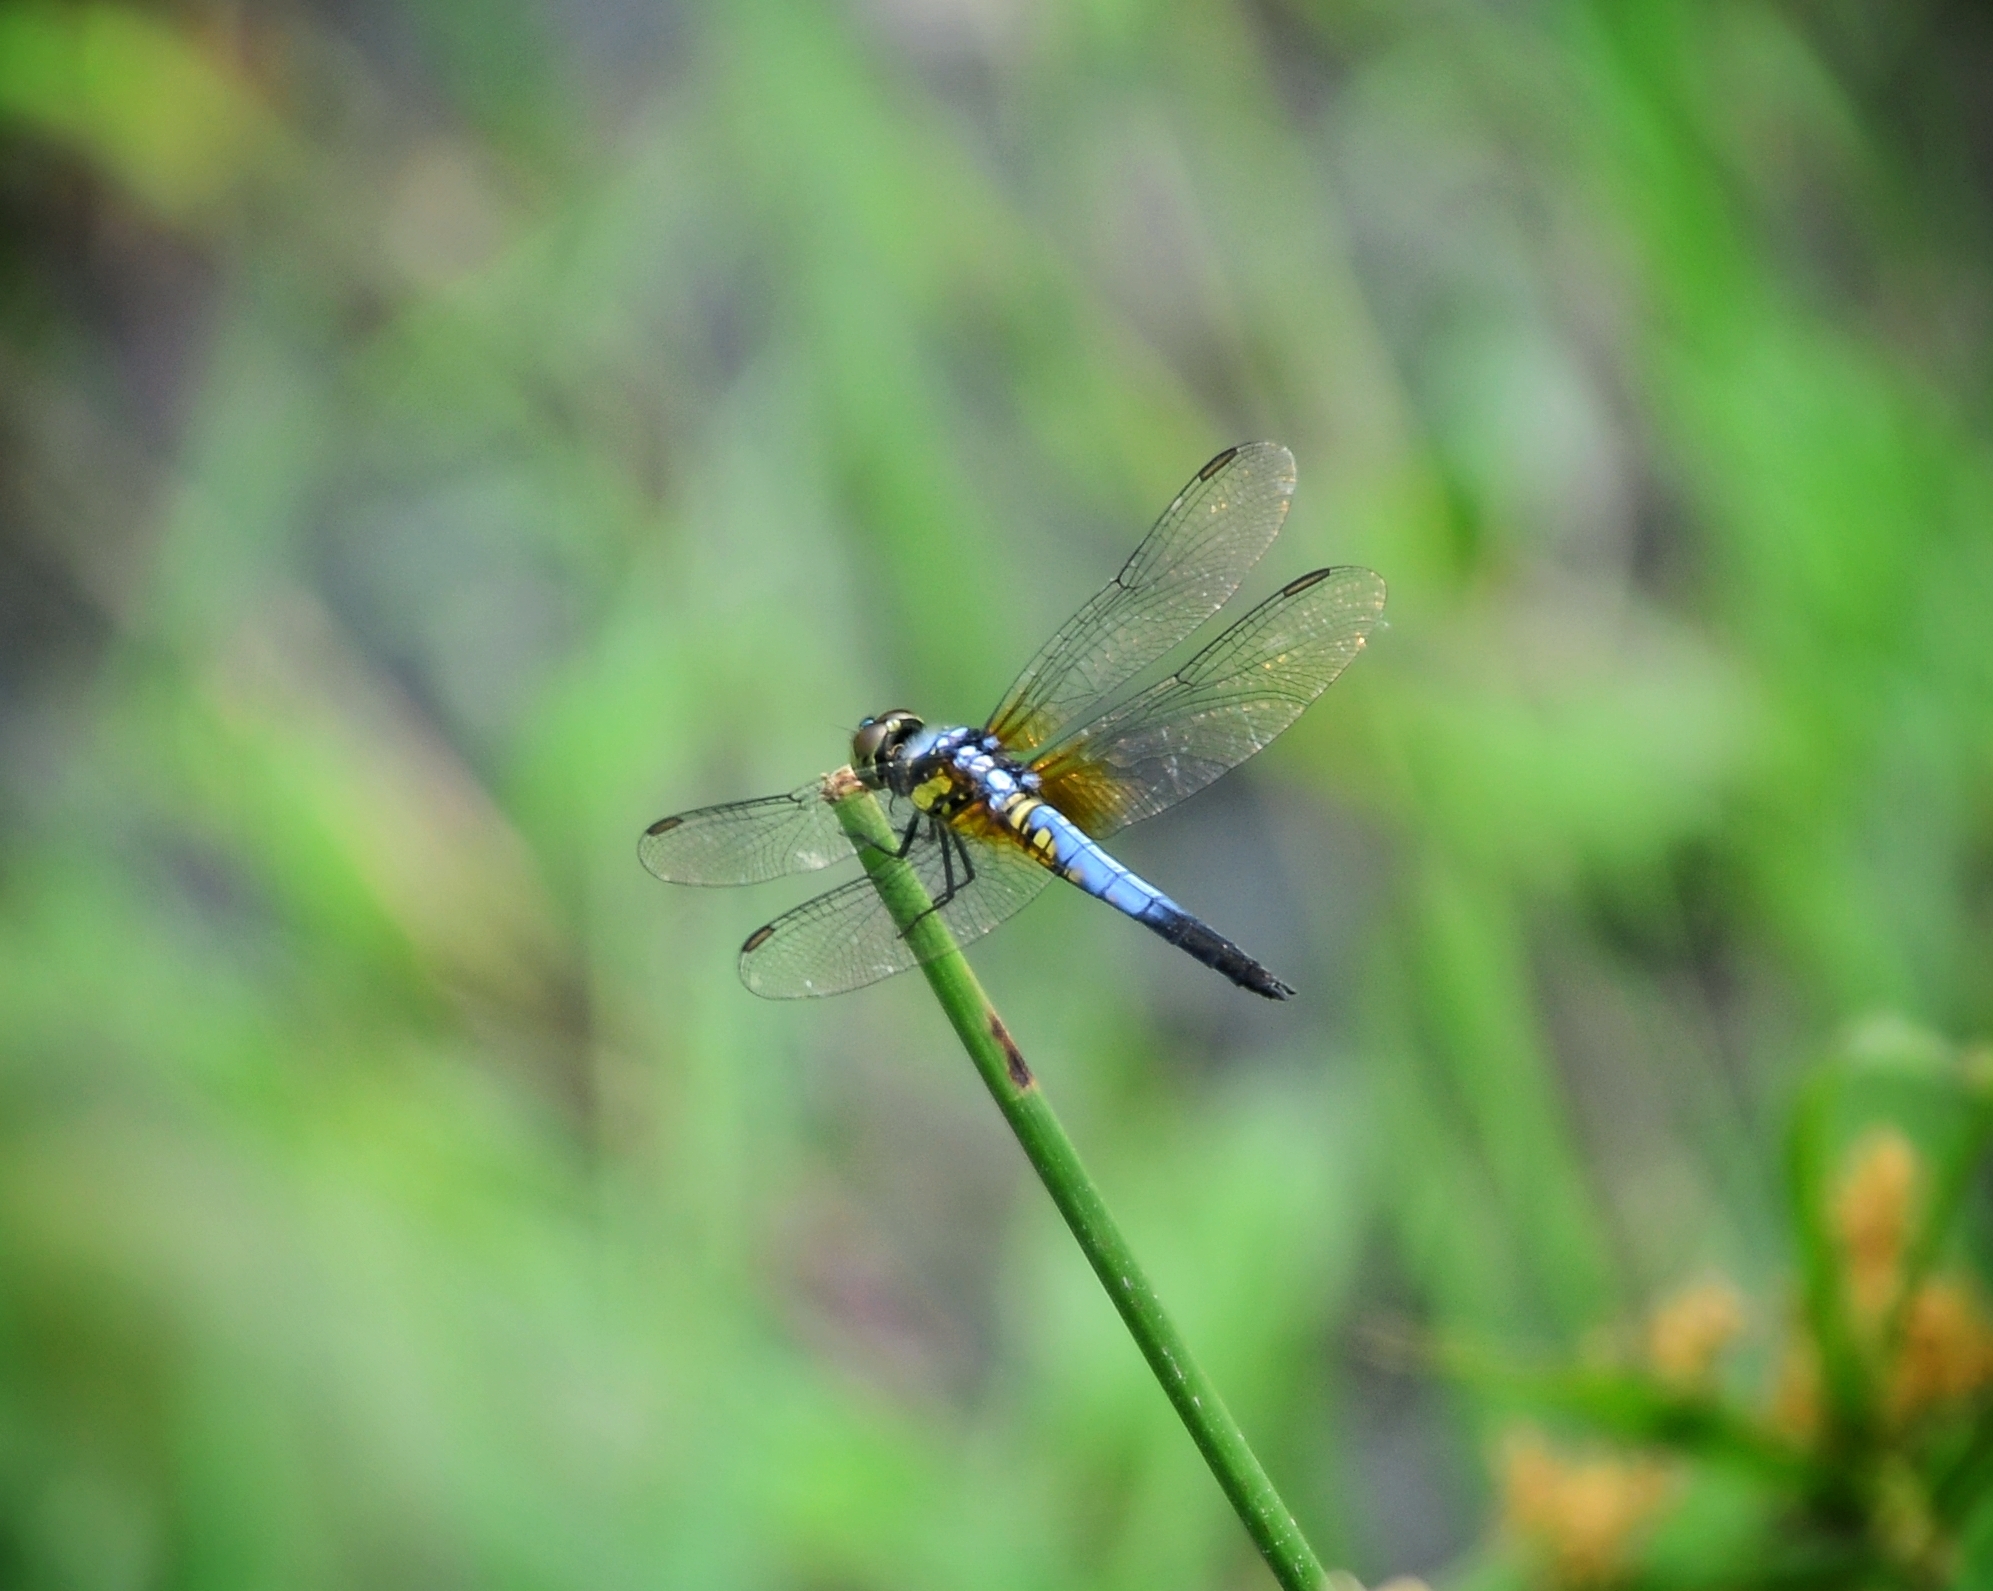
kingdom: Animalia
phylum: Arthropoda
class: Insecta
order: Odonata
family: Libellulidae
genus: Brachydiplax
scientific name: Brachydiplax chalybea
